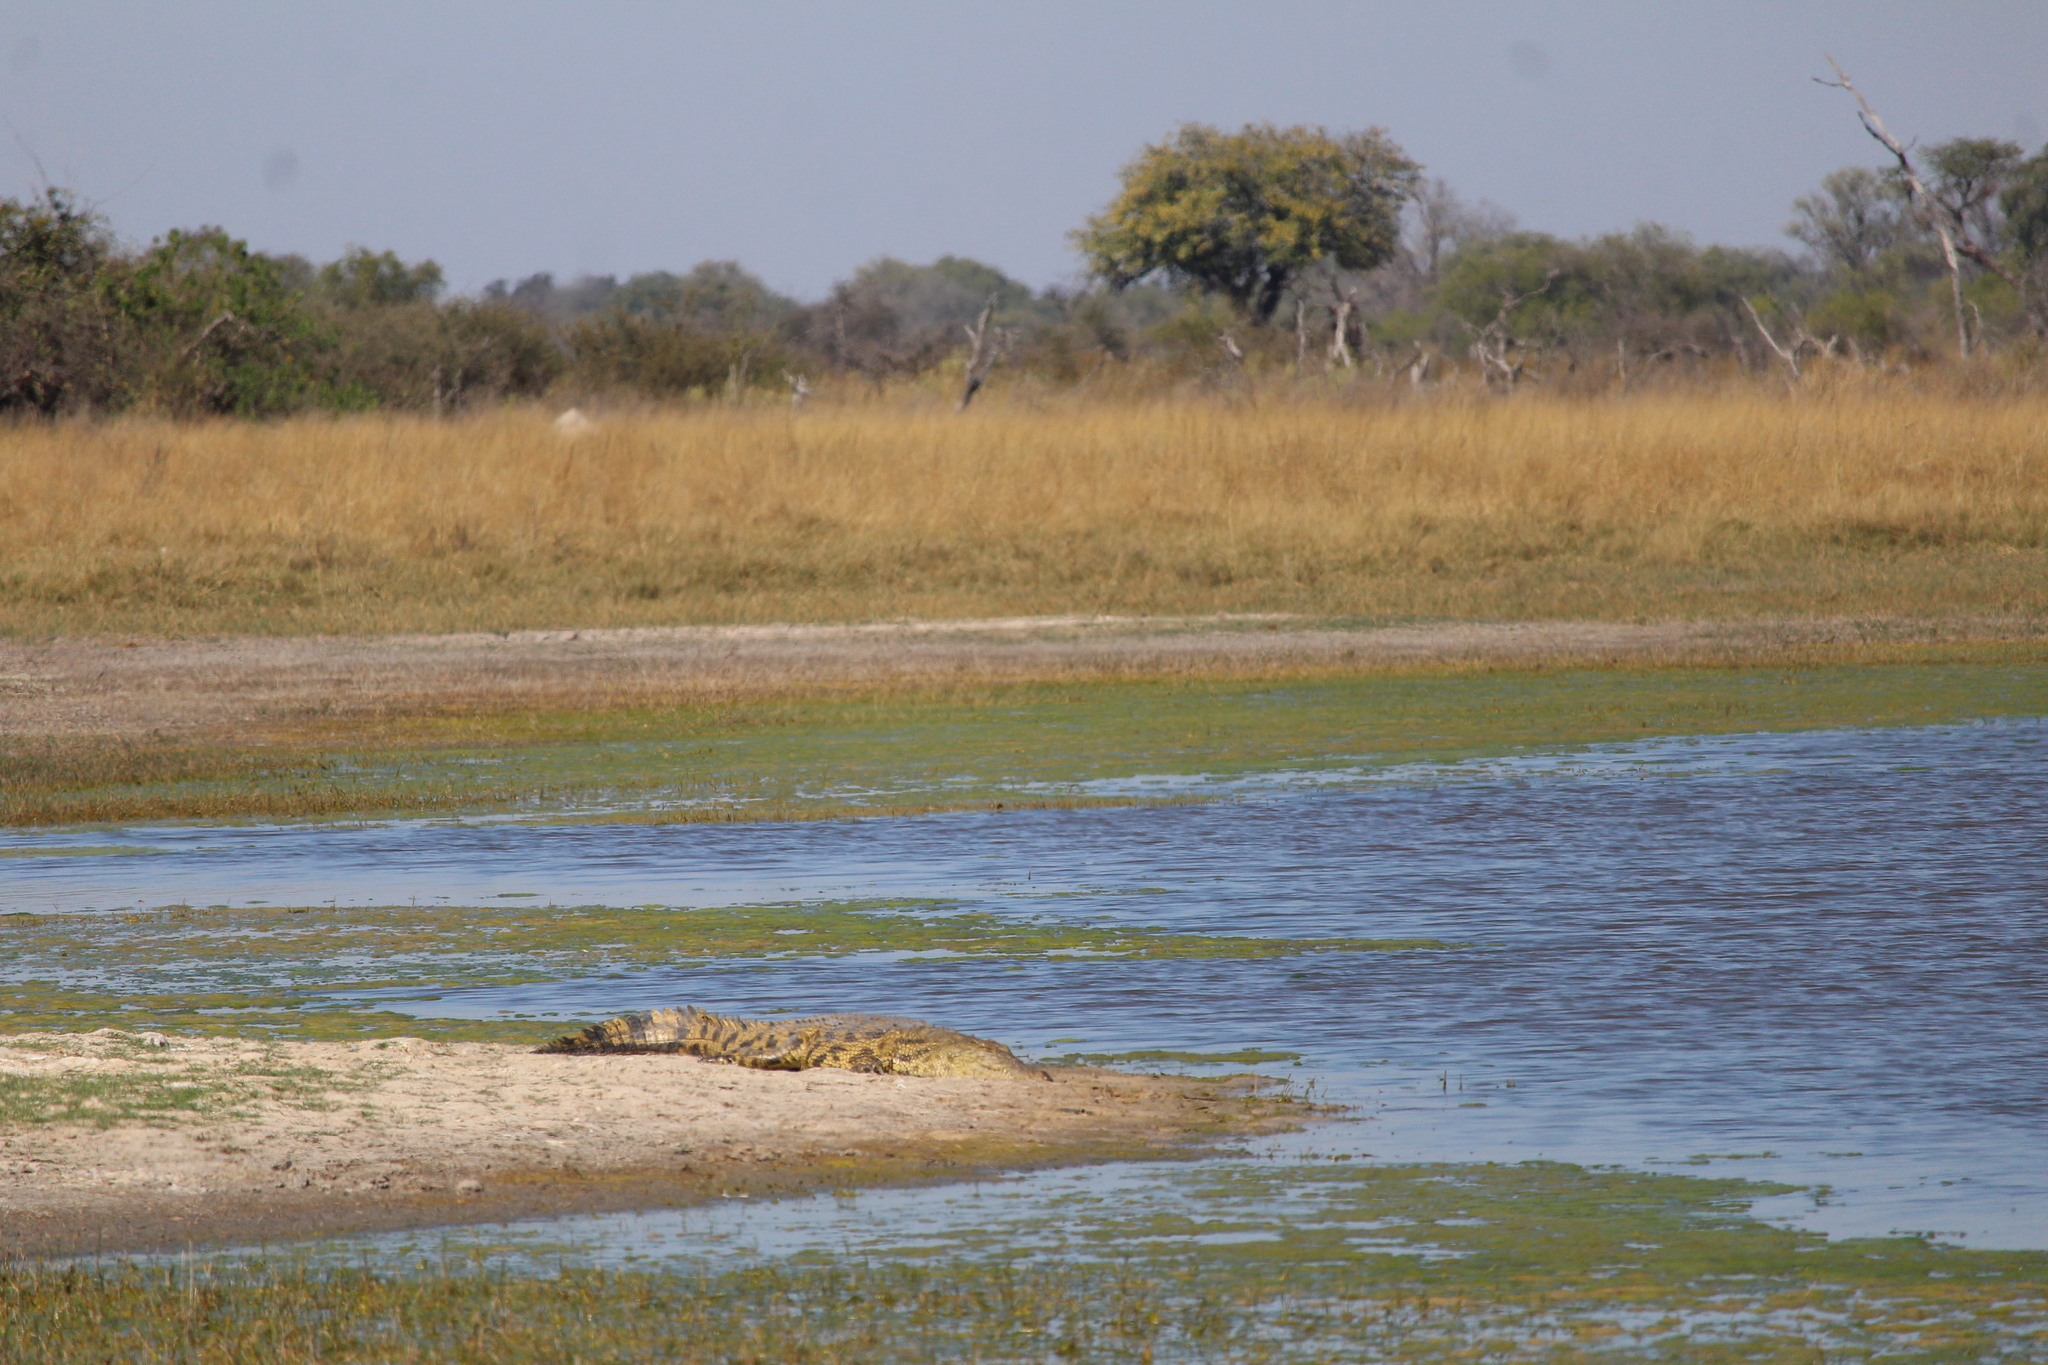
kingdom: Animalia
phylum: Chordata
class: Crocodylia
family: Crocodylidae
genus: Crocodylus
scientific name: Crocodylus niloticus
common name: Nile crocodile
